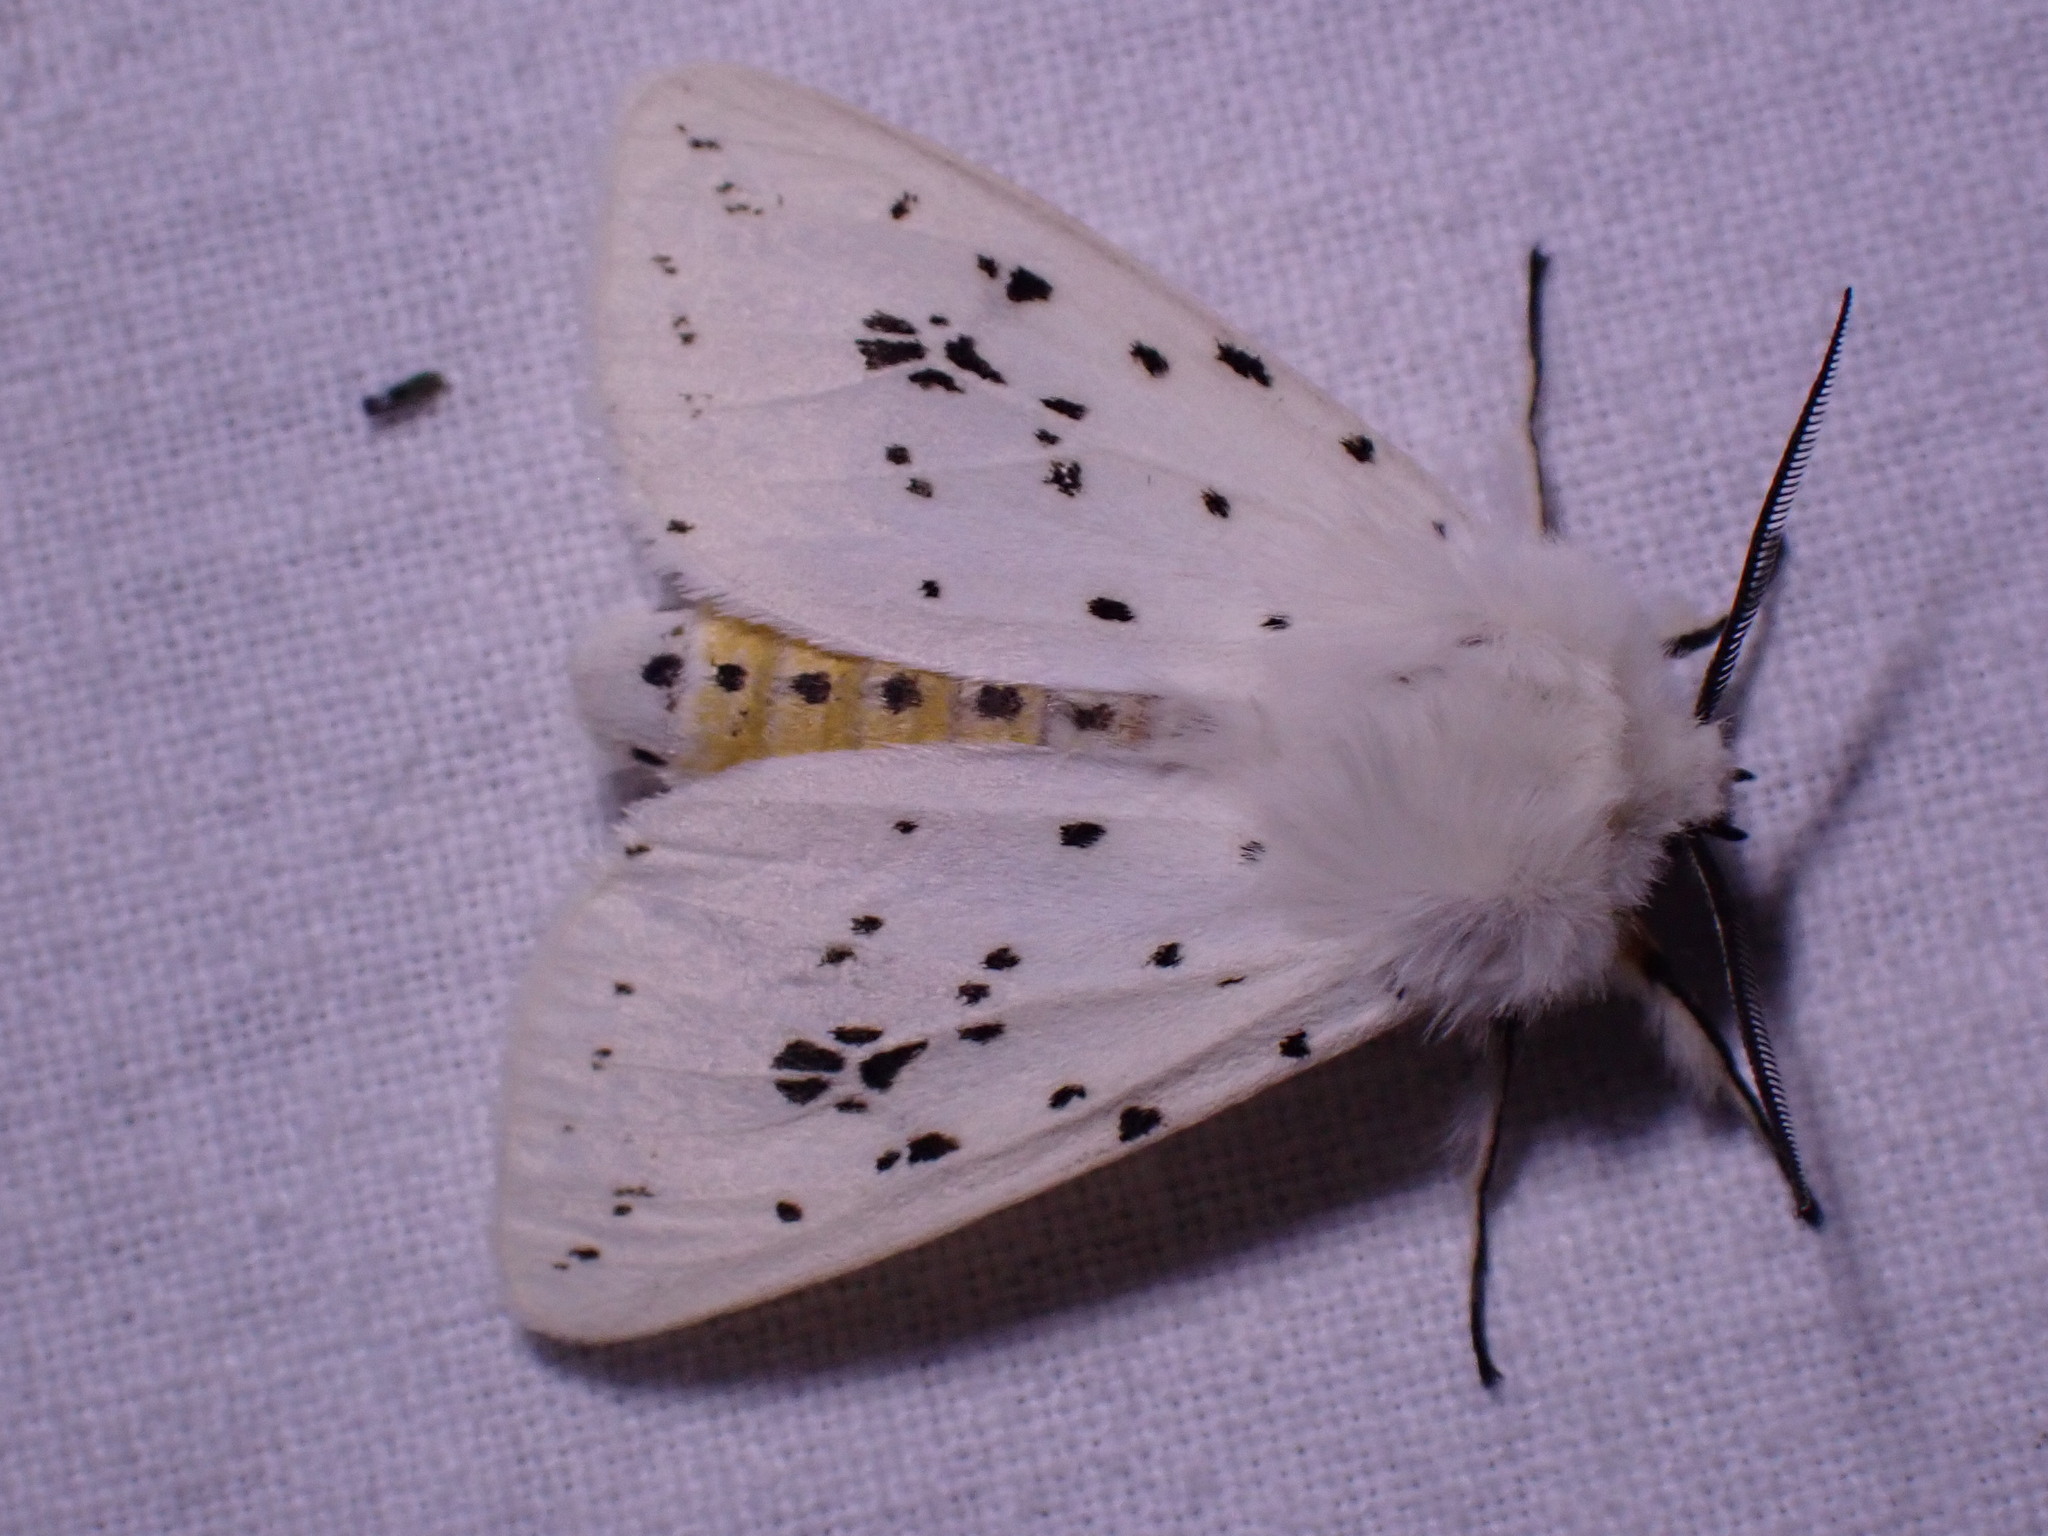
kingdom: Animalia
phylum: Arthropoda
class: Insecta
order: Lepidoptera
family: Erebidae
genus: Spilosoma
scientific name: Spilosoma lubricipeda
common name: White ermine
